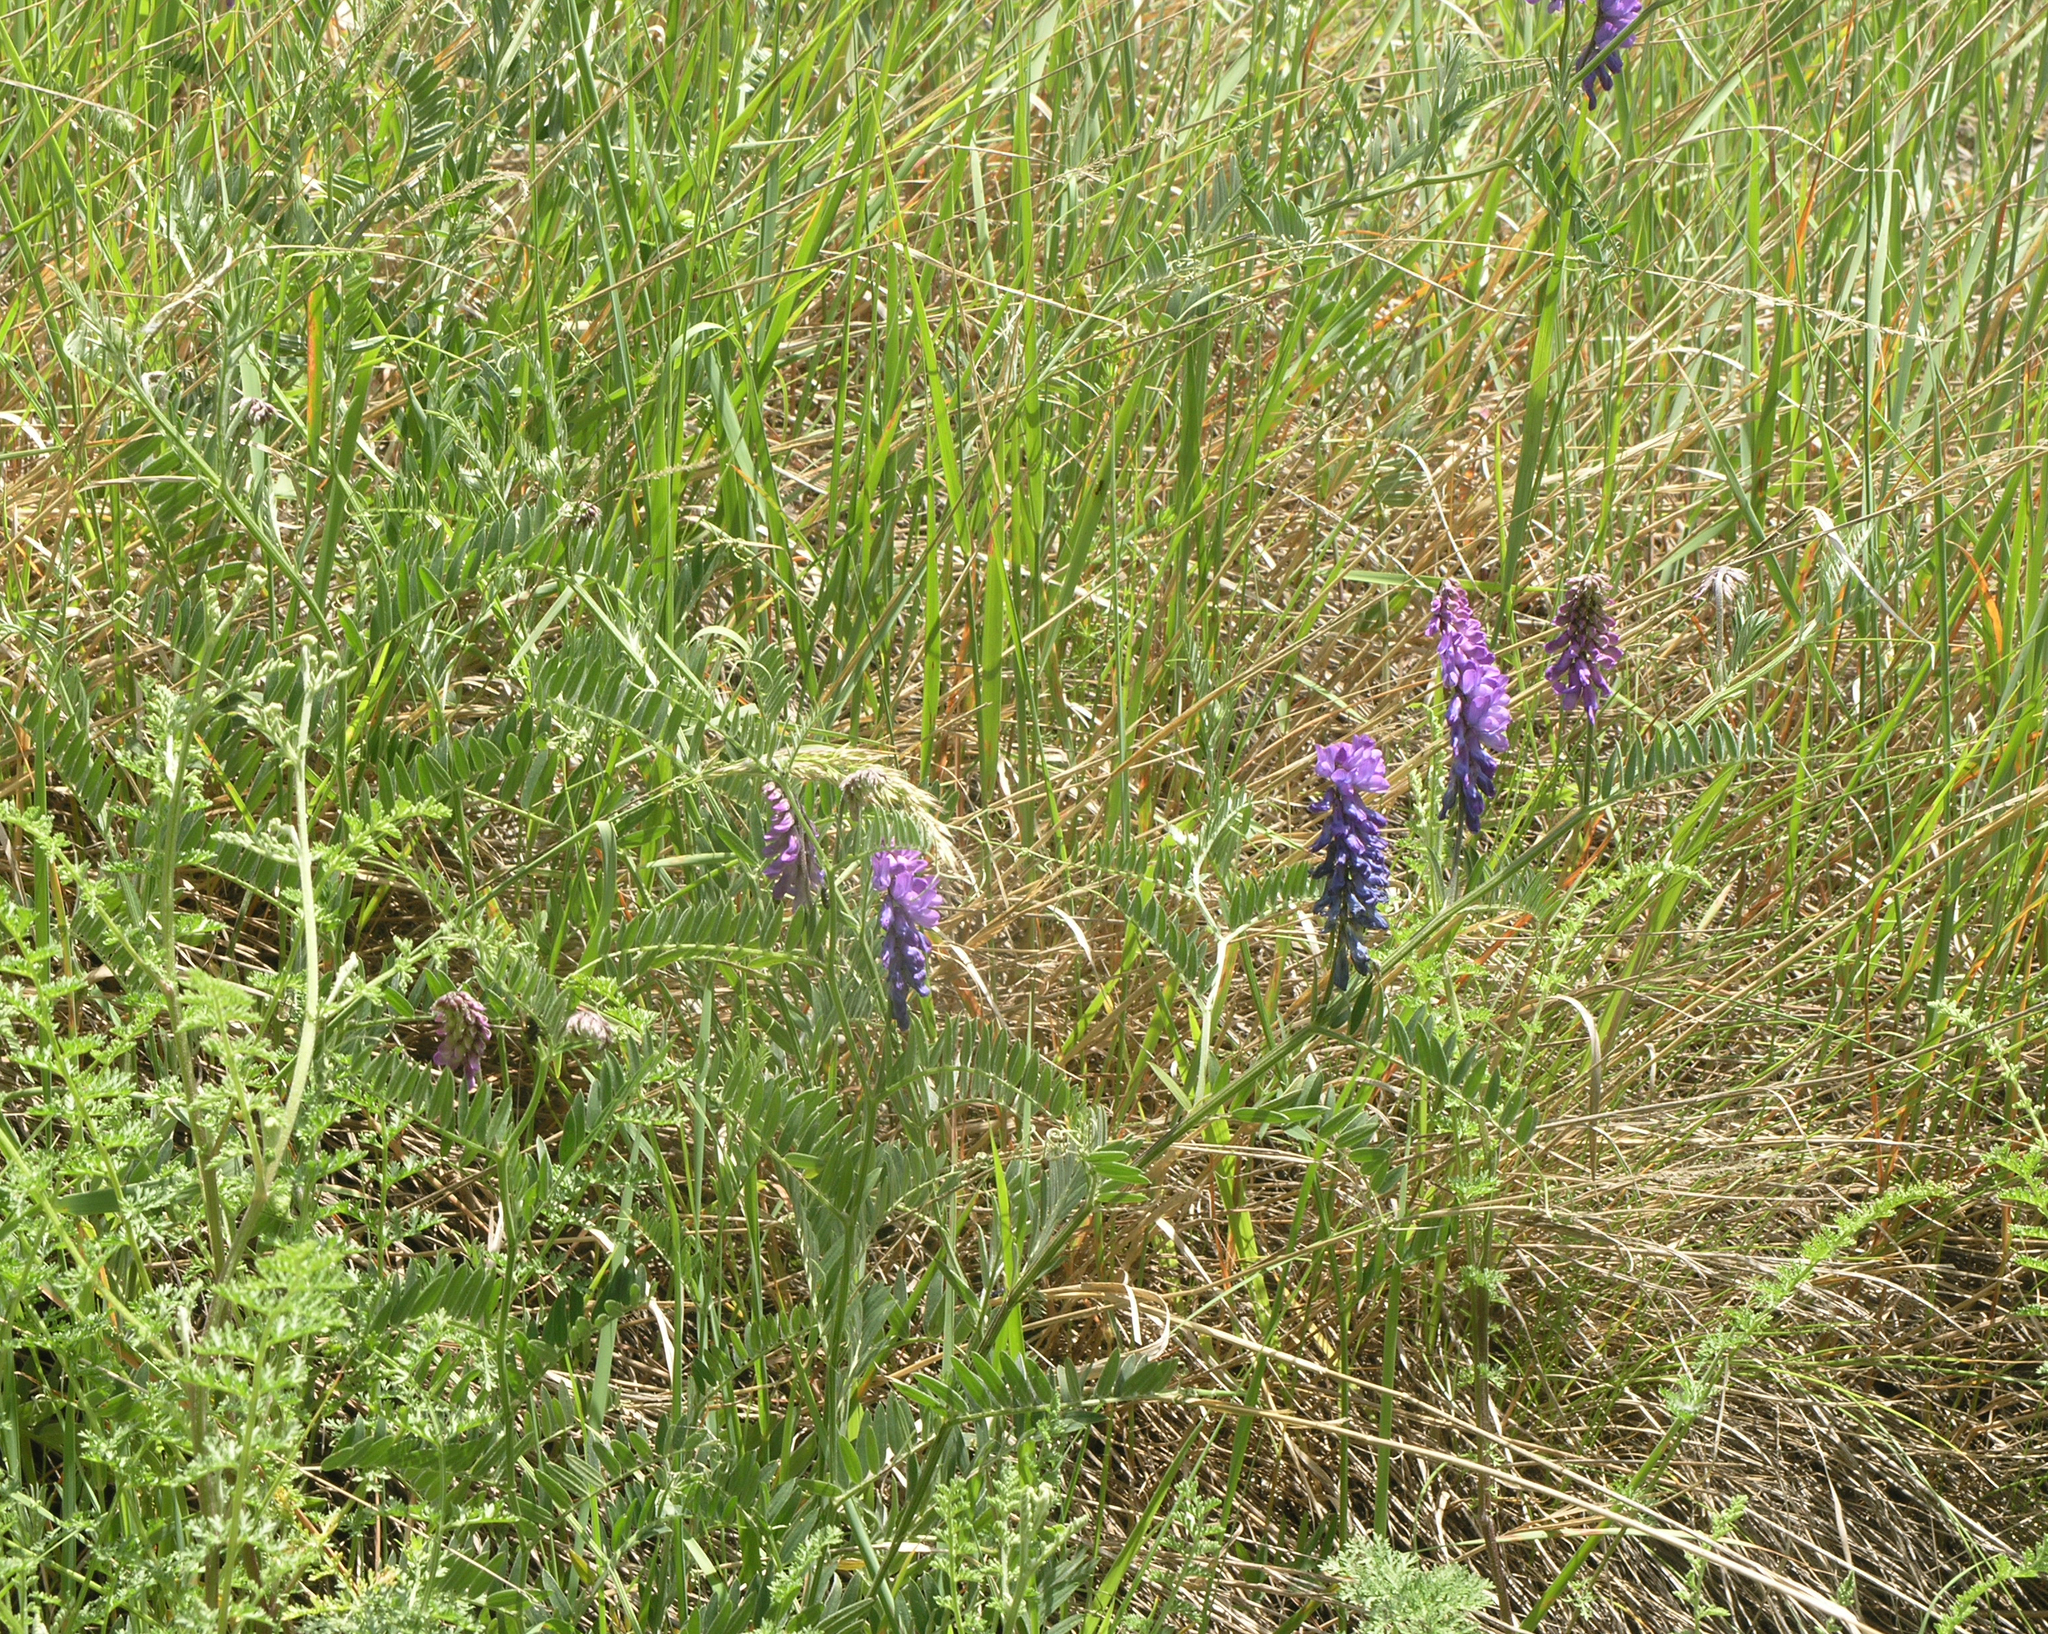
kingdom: Plantae
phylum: Tracheophyta
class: Magnoliopsida
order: Fabales
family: Fabaceae
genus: Vicia
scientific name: Vicia cracca
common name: Bird vetch
